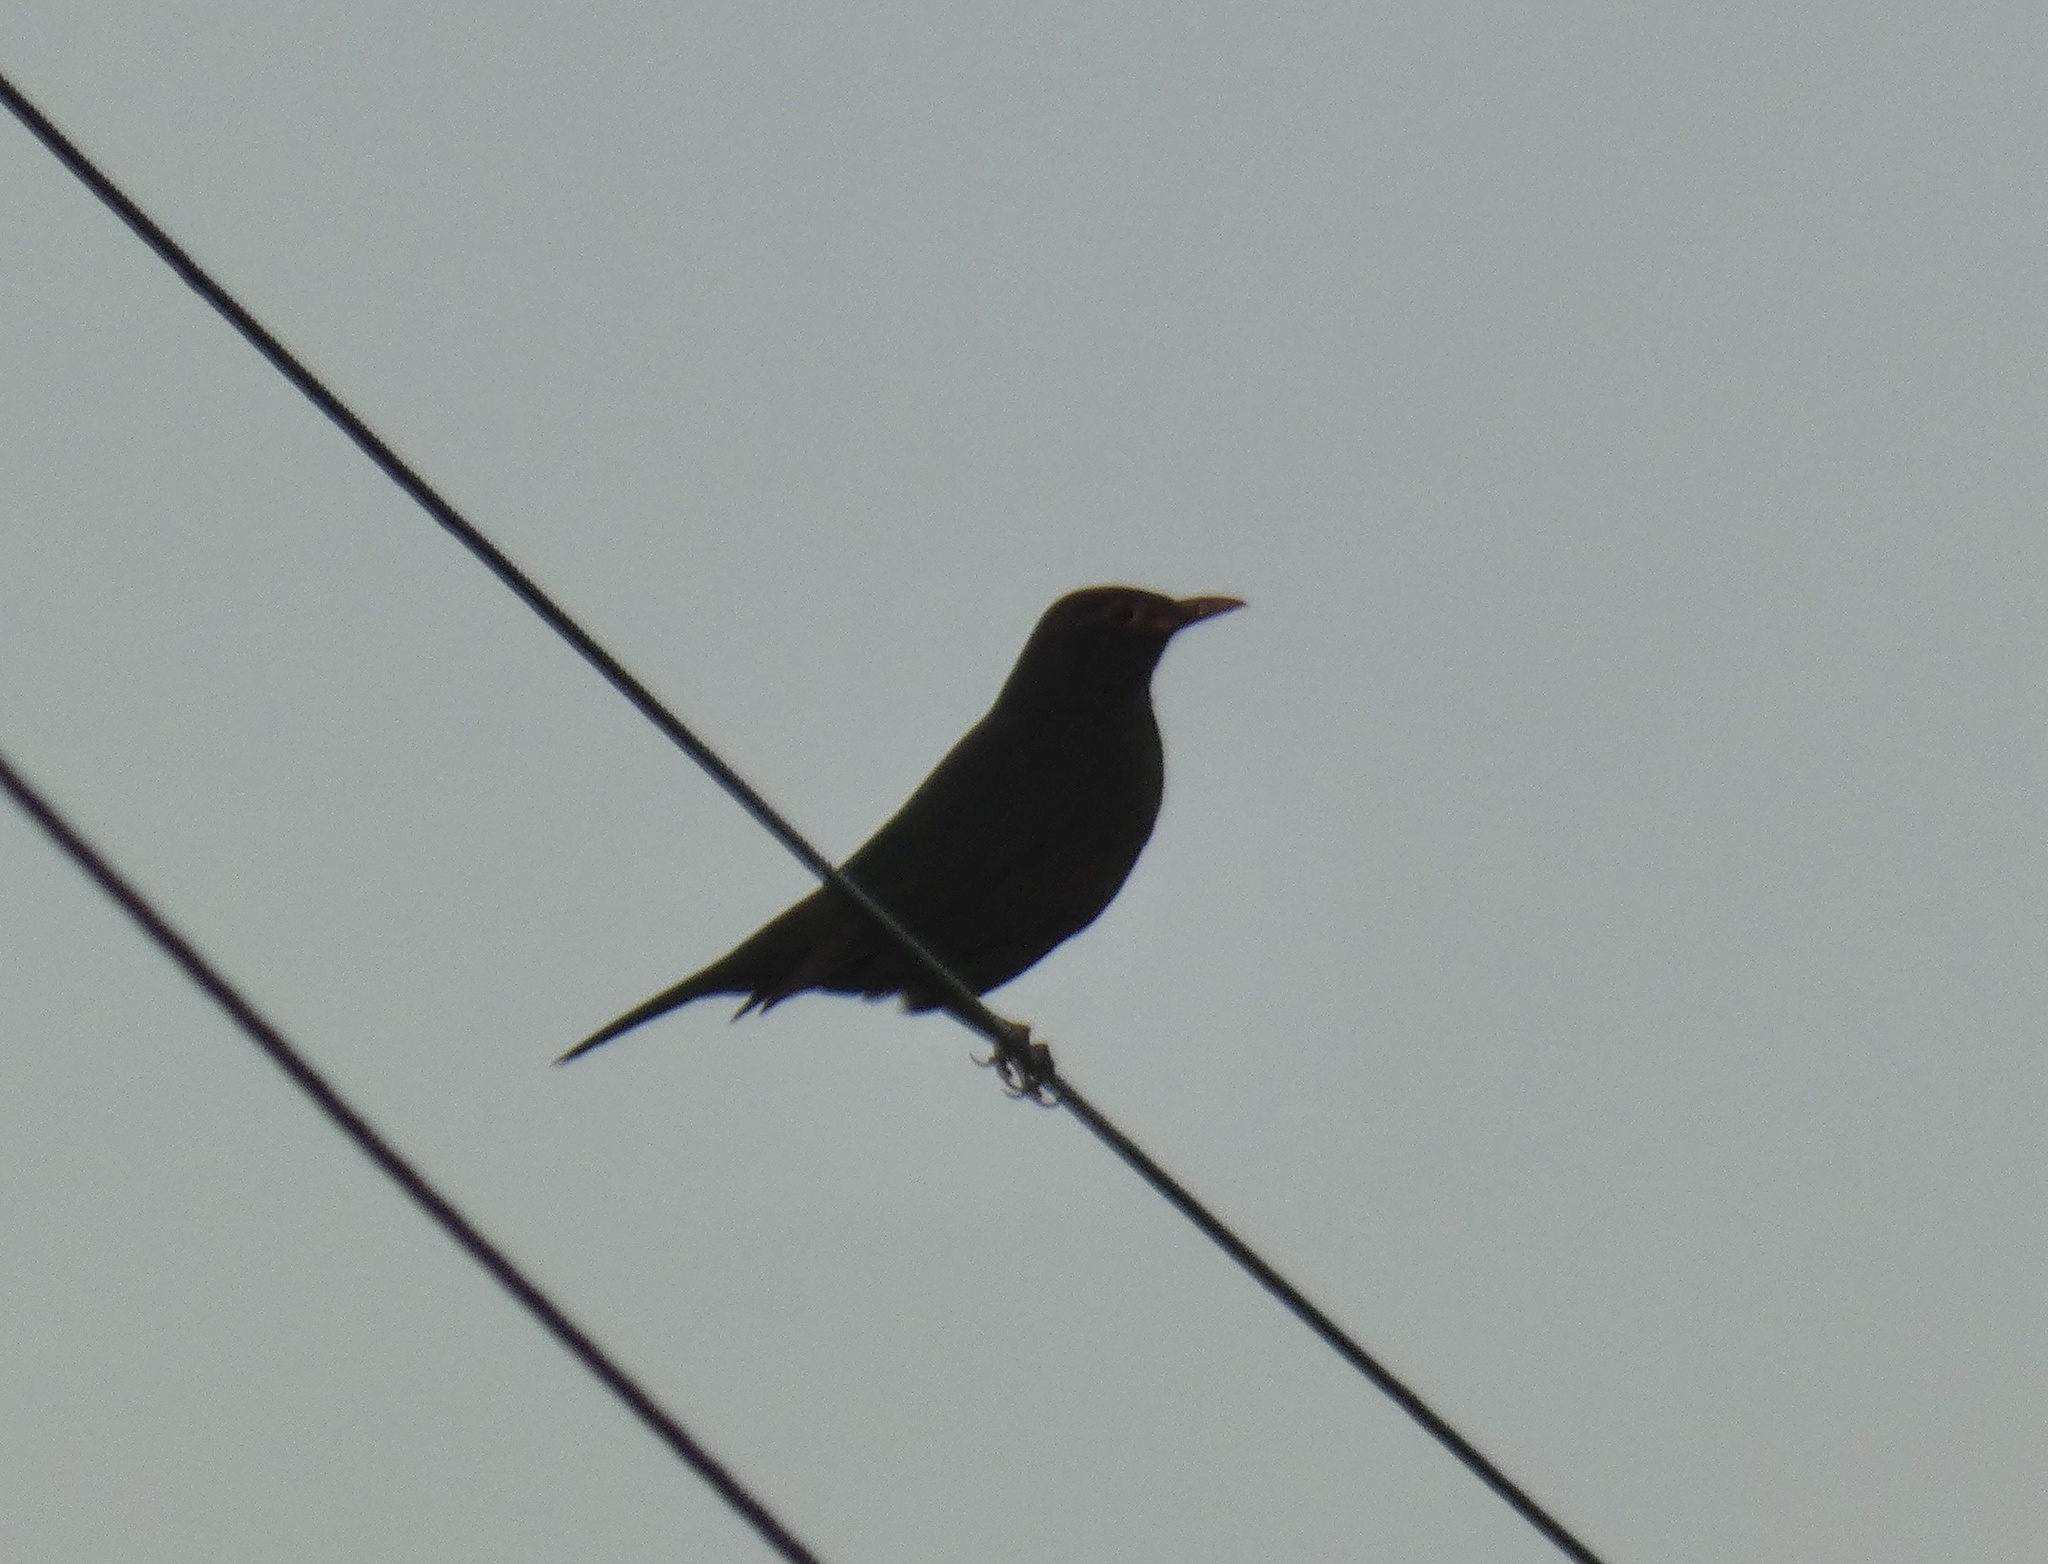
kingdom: Animalia
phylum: Chordata
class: Aves
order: Passeriformes
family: Turdidae
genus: Turdus
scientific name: Turdus mandarinus
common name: Chinese blackbird
